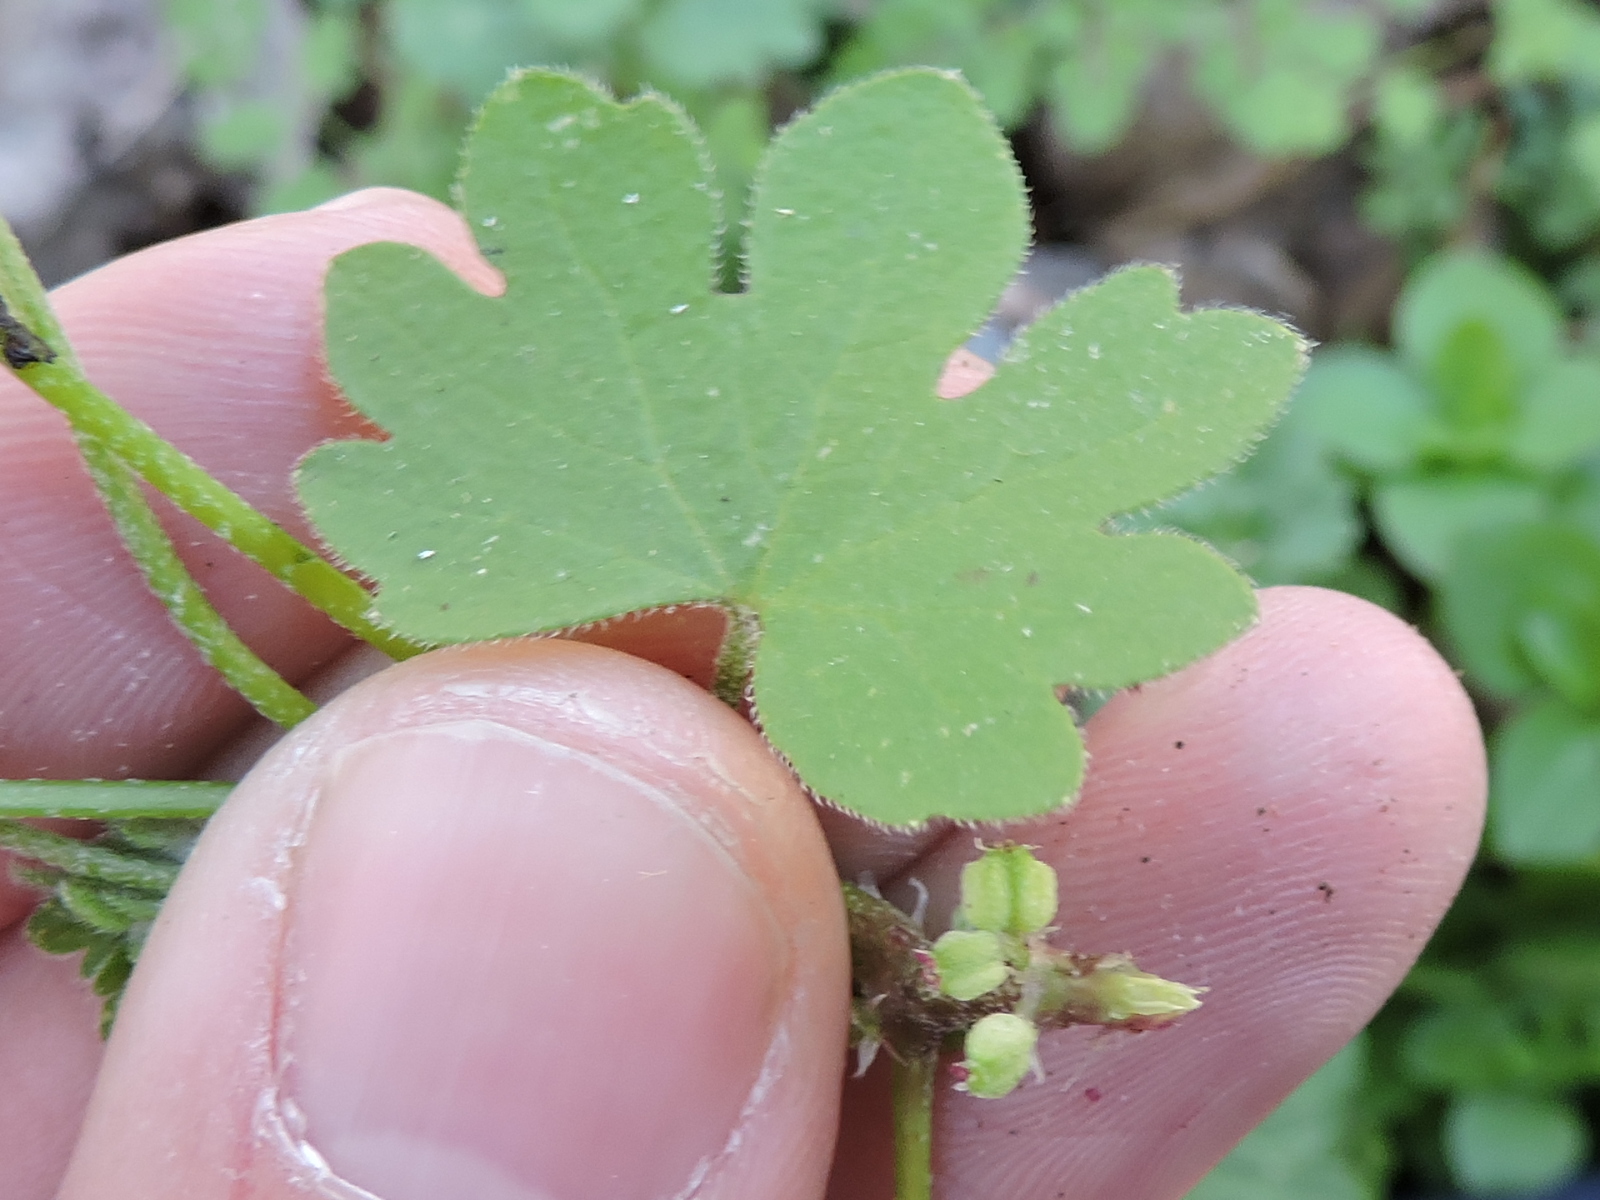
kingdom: Plantae
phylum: Tracheophyta
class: Magnoliopsida
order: Apiales
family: Apiaceae
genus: Bowlesia
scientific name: Bowlesia incana
